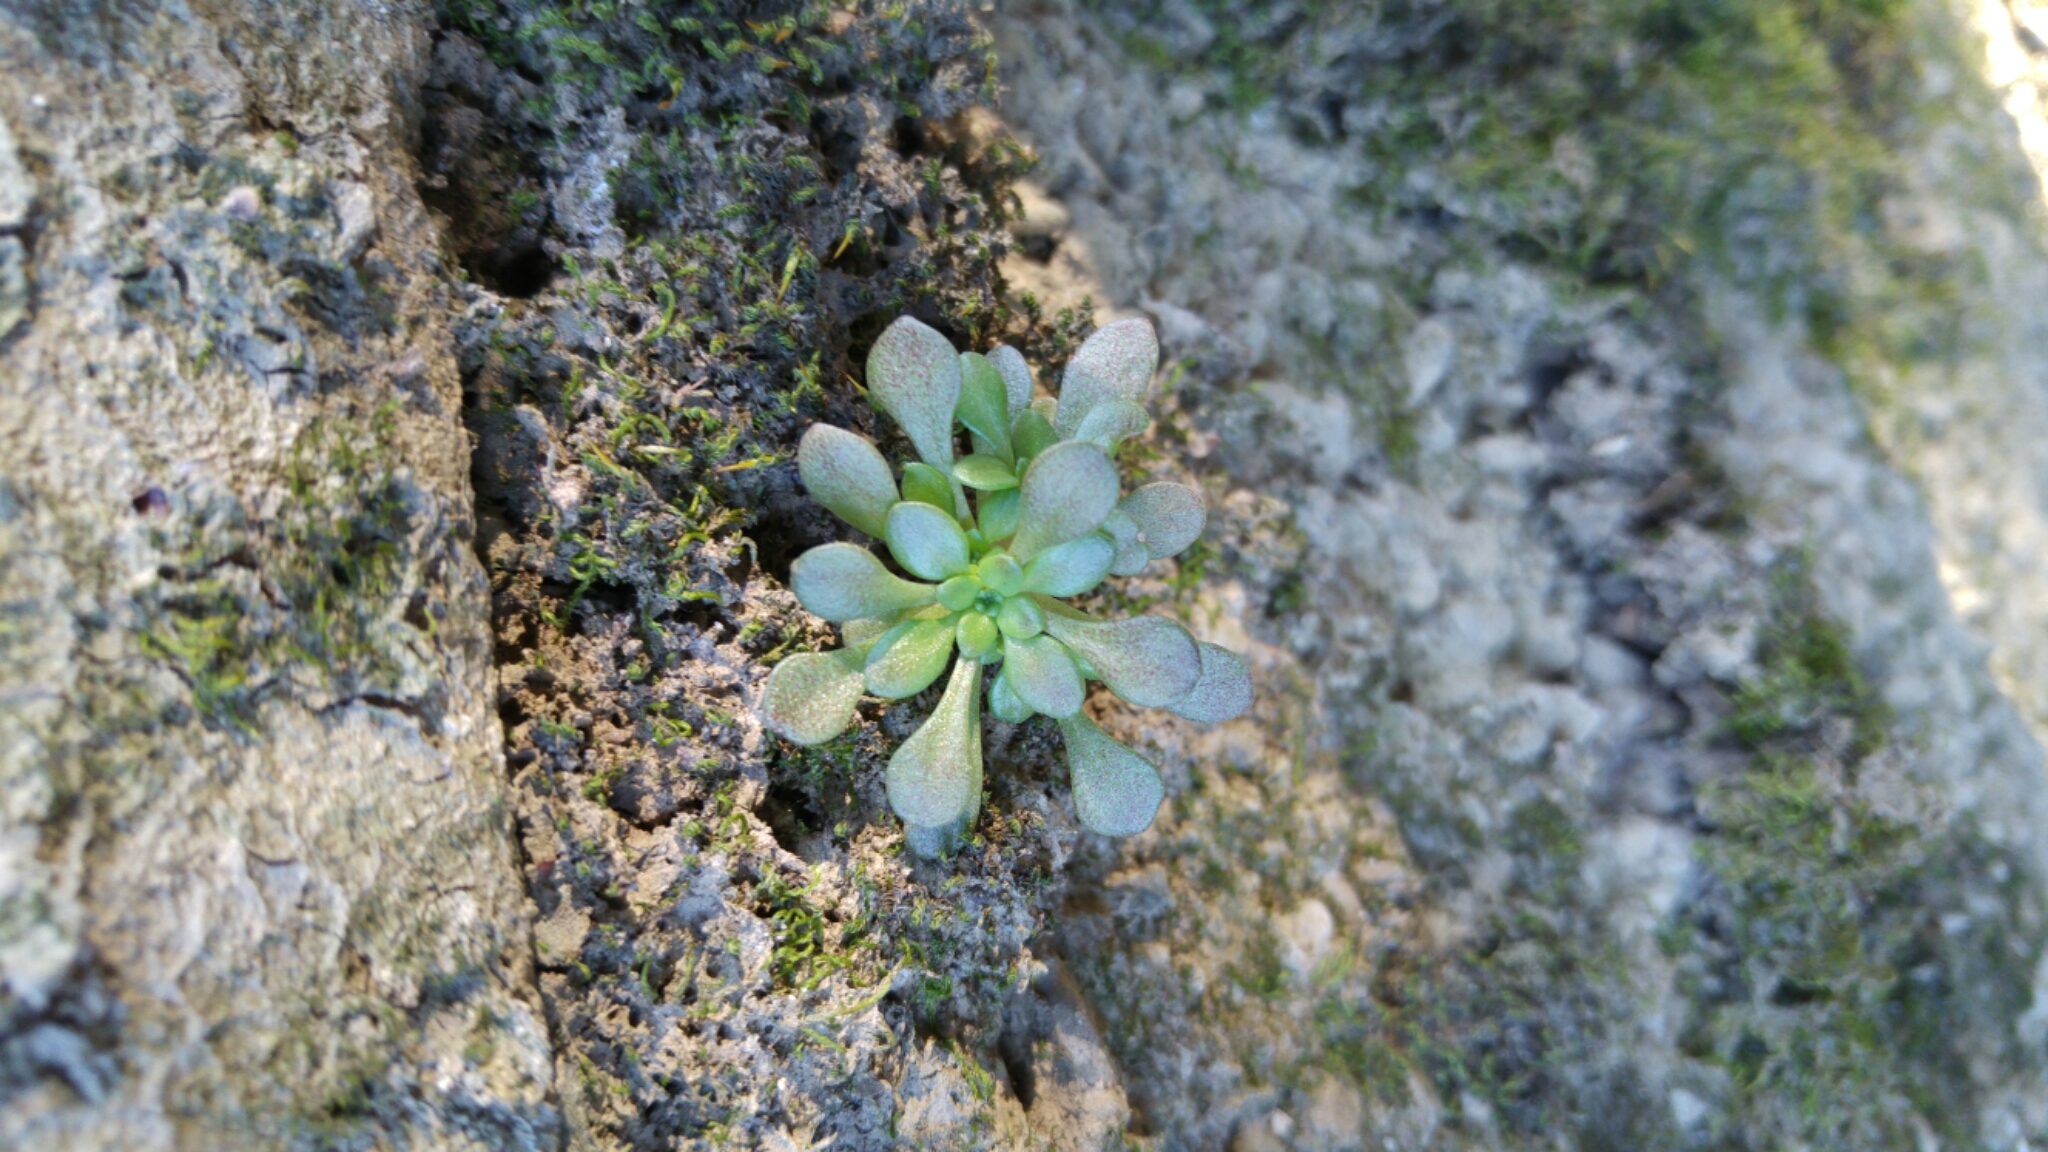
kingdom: Plantae
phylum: Tracheophyta
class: Magnoliopsida
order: Saxifragales
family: Crassulaceae
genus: Sedum
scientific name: Sedum cepaea
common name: Pink stonecrop
